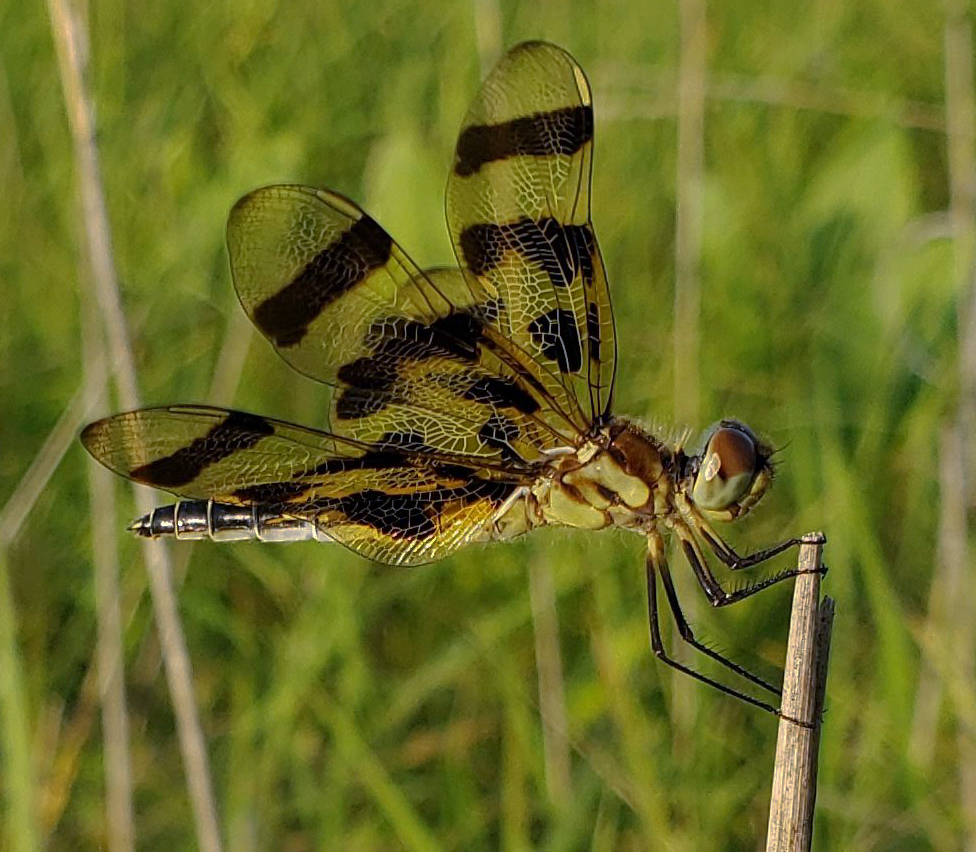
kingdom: Animalia
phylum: Arthropoda
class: Insecta
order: Odonata
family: Libellulidae
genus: Celithemis
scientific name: Celithemis eponina
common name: Halloween pennant
